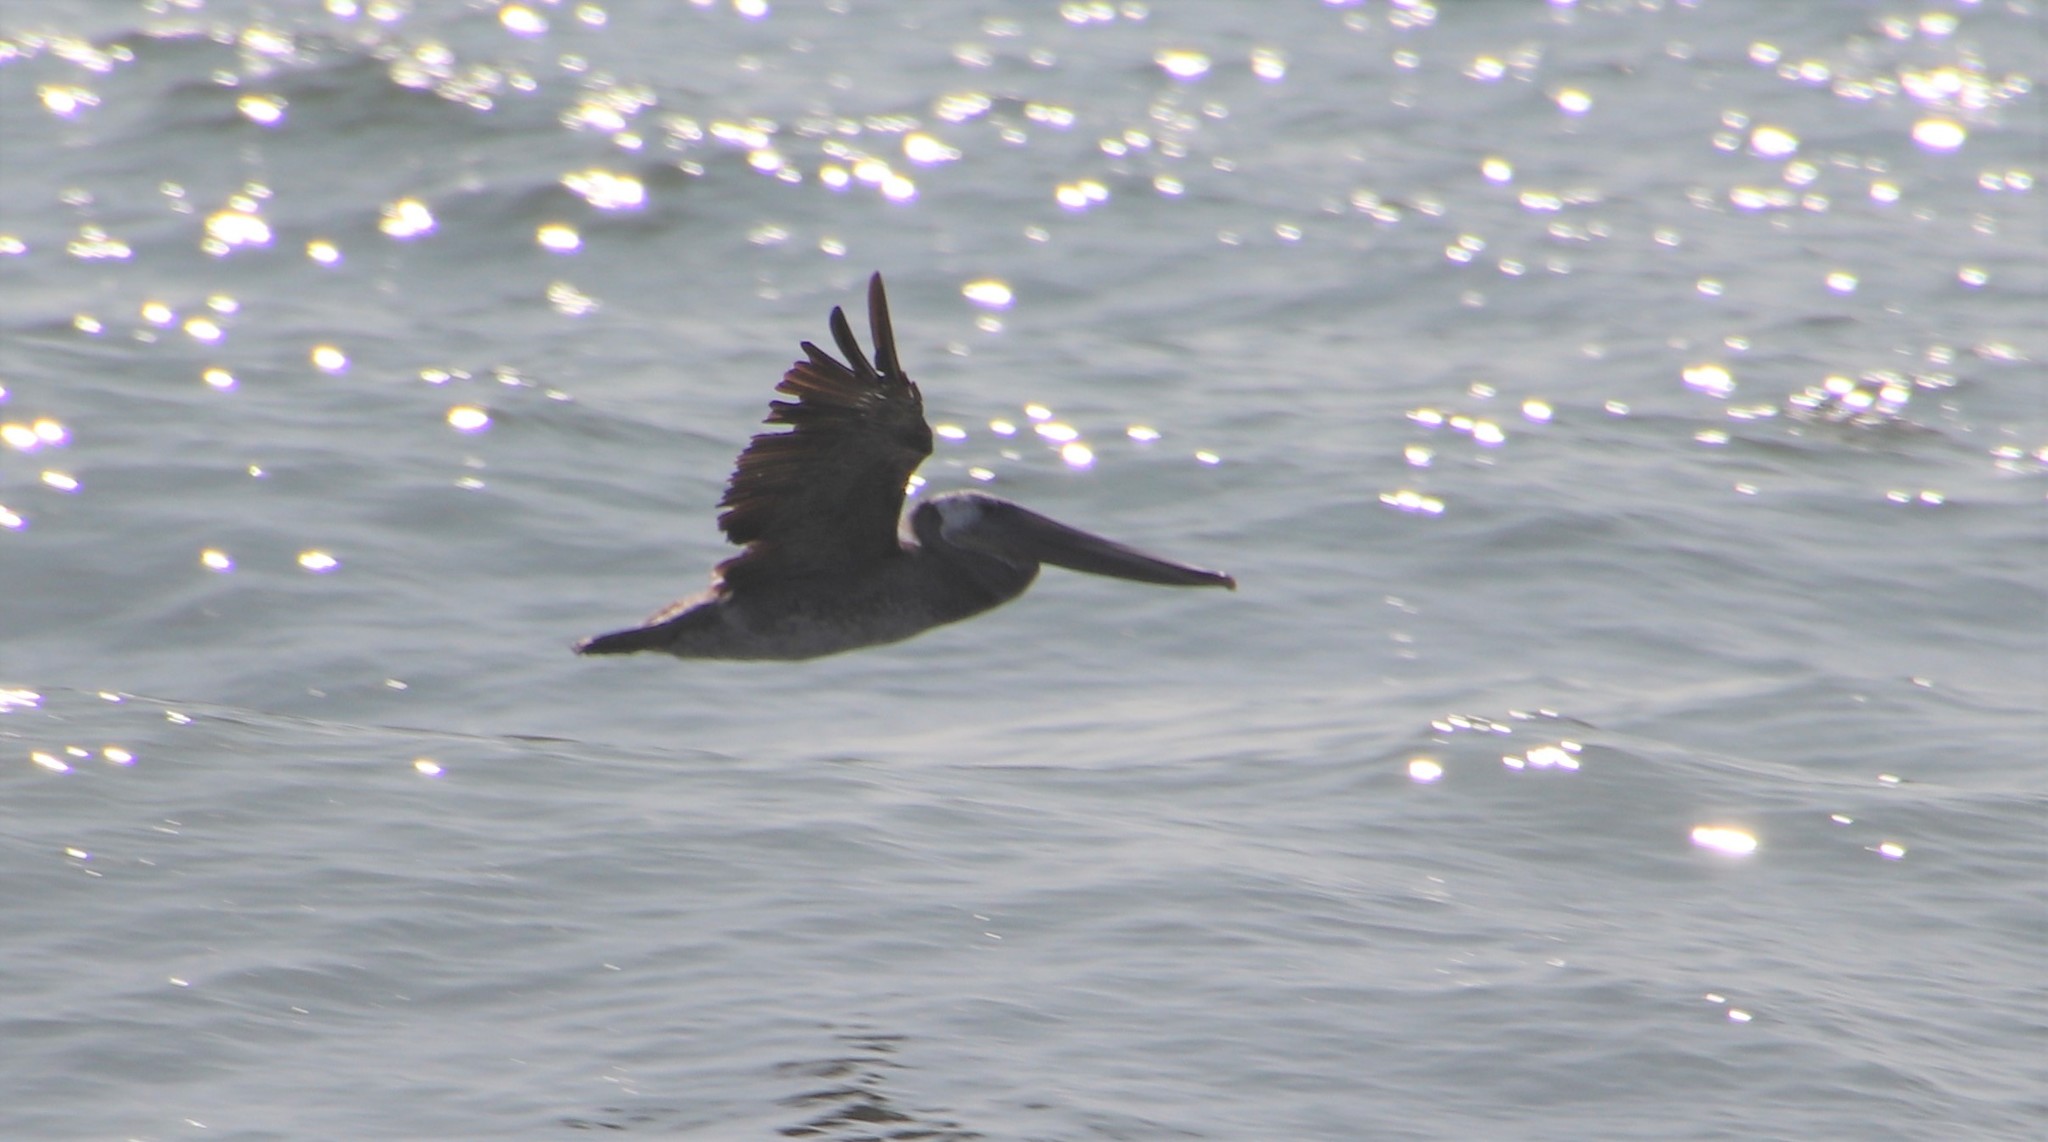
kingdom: Animalia
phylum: Chordata
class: Aves
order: Pelecaniformes
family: Pelecanidae
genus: Pelecanus
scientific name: Pelecanus occidentalis
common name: Brown pelican
